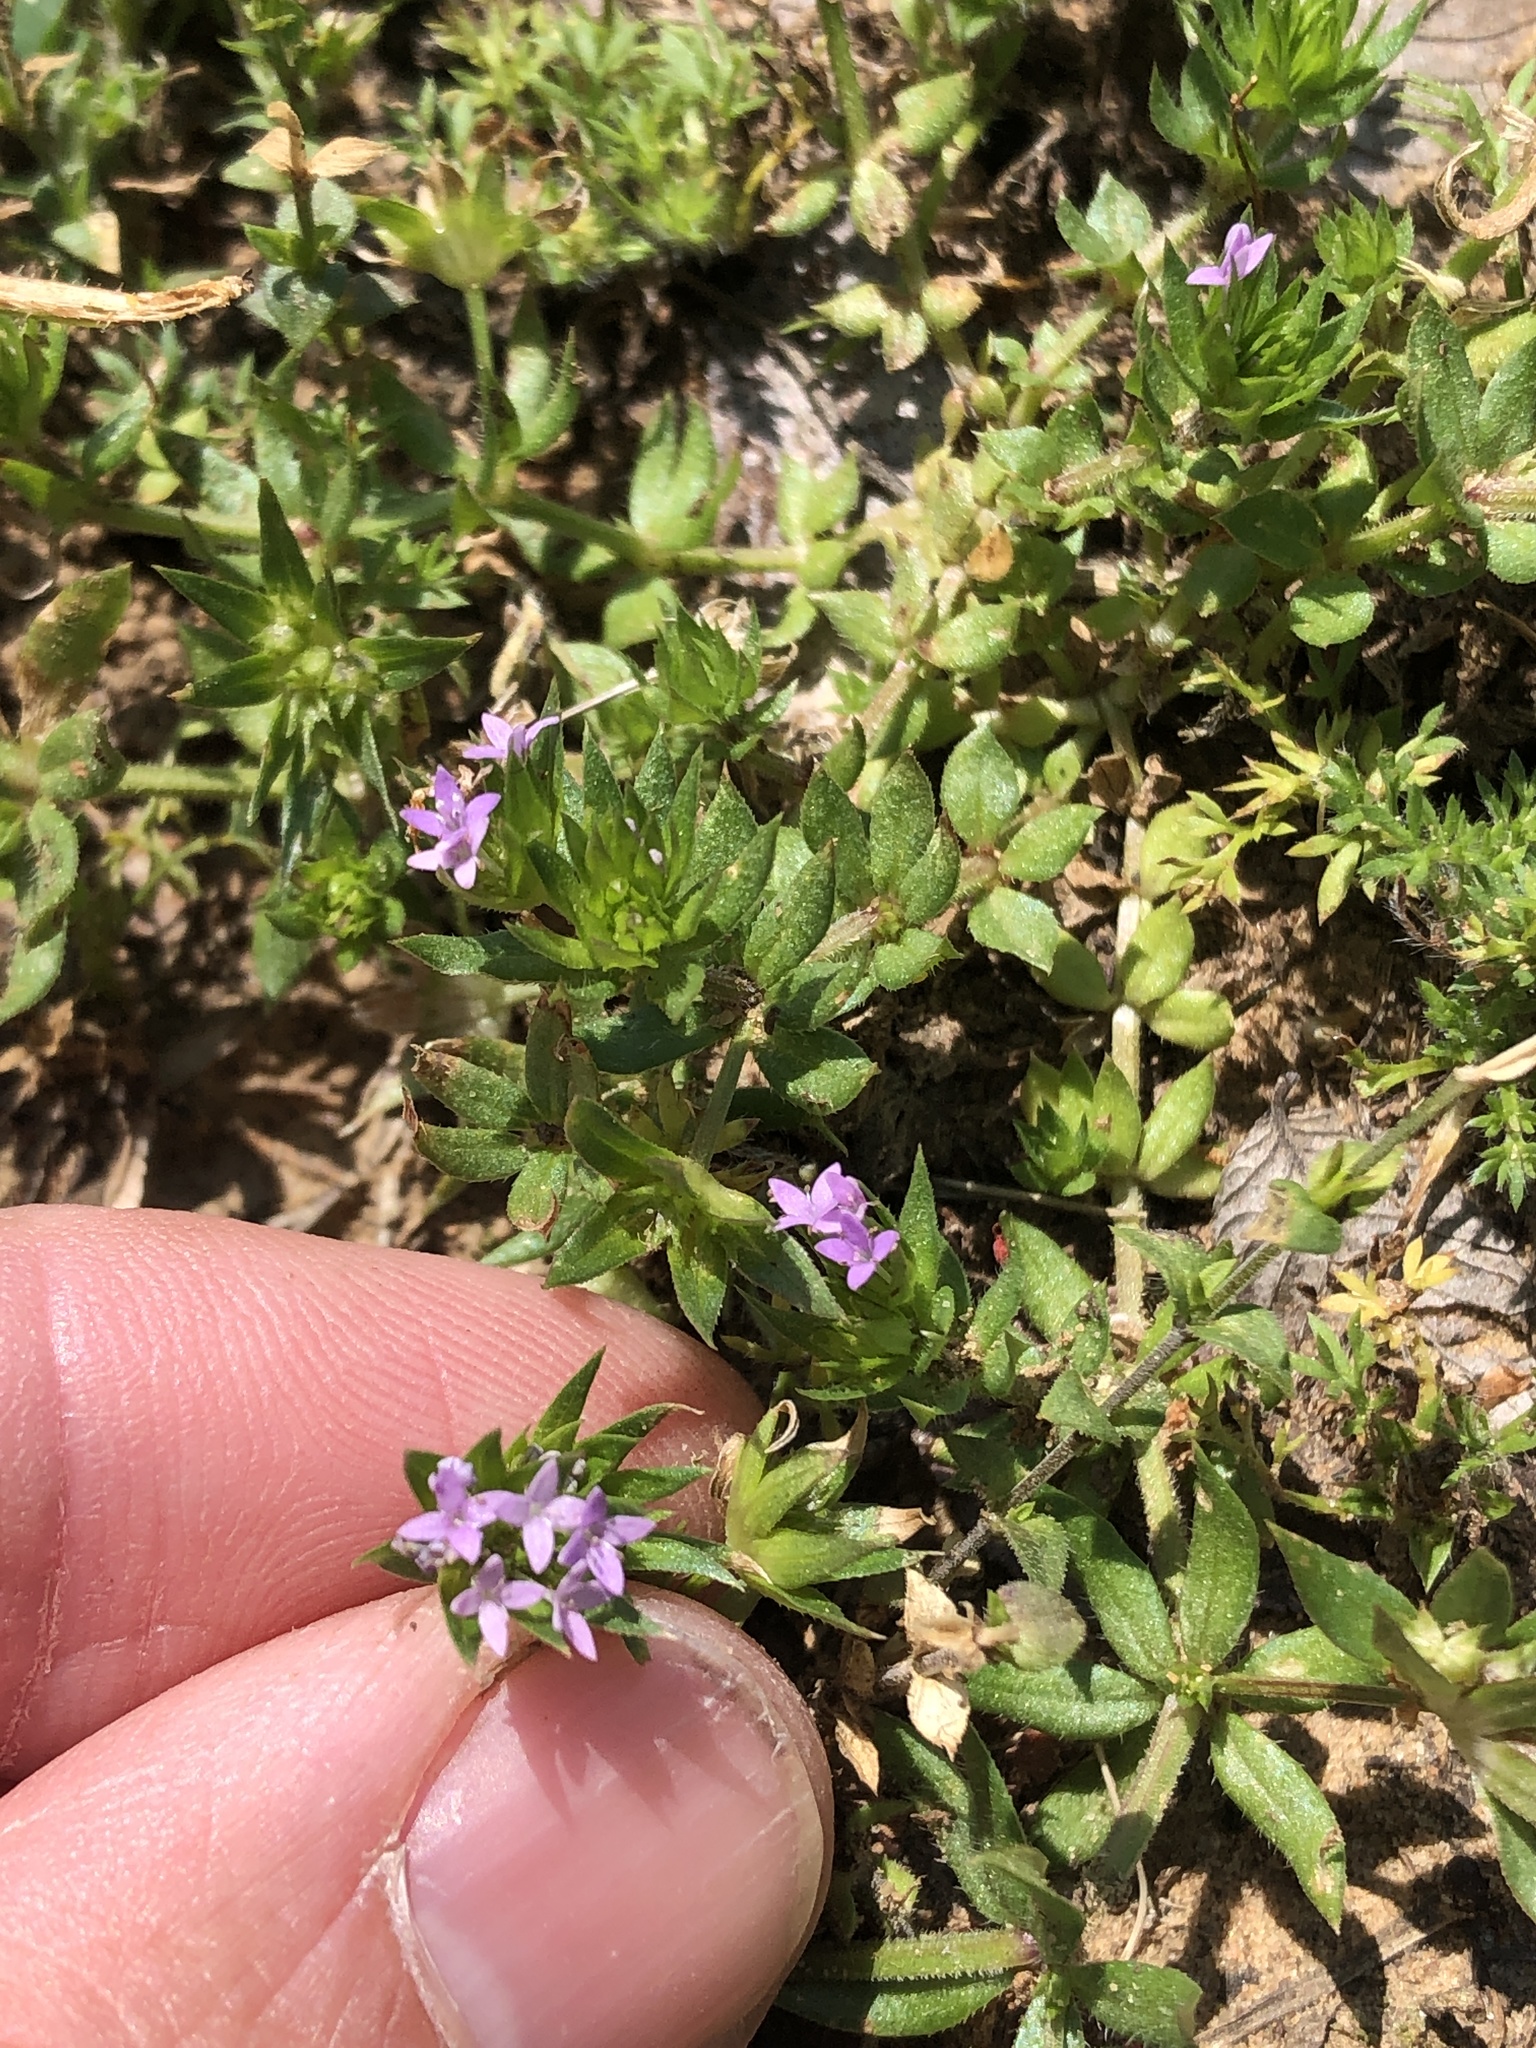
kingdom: Plantae
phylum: Tracheophyta
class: Magnoliopsida
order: Gentianales
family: Rubiaceae
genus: Sherardia
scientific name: Sherardia arvensis
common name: Field madder
